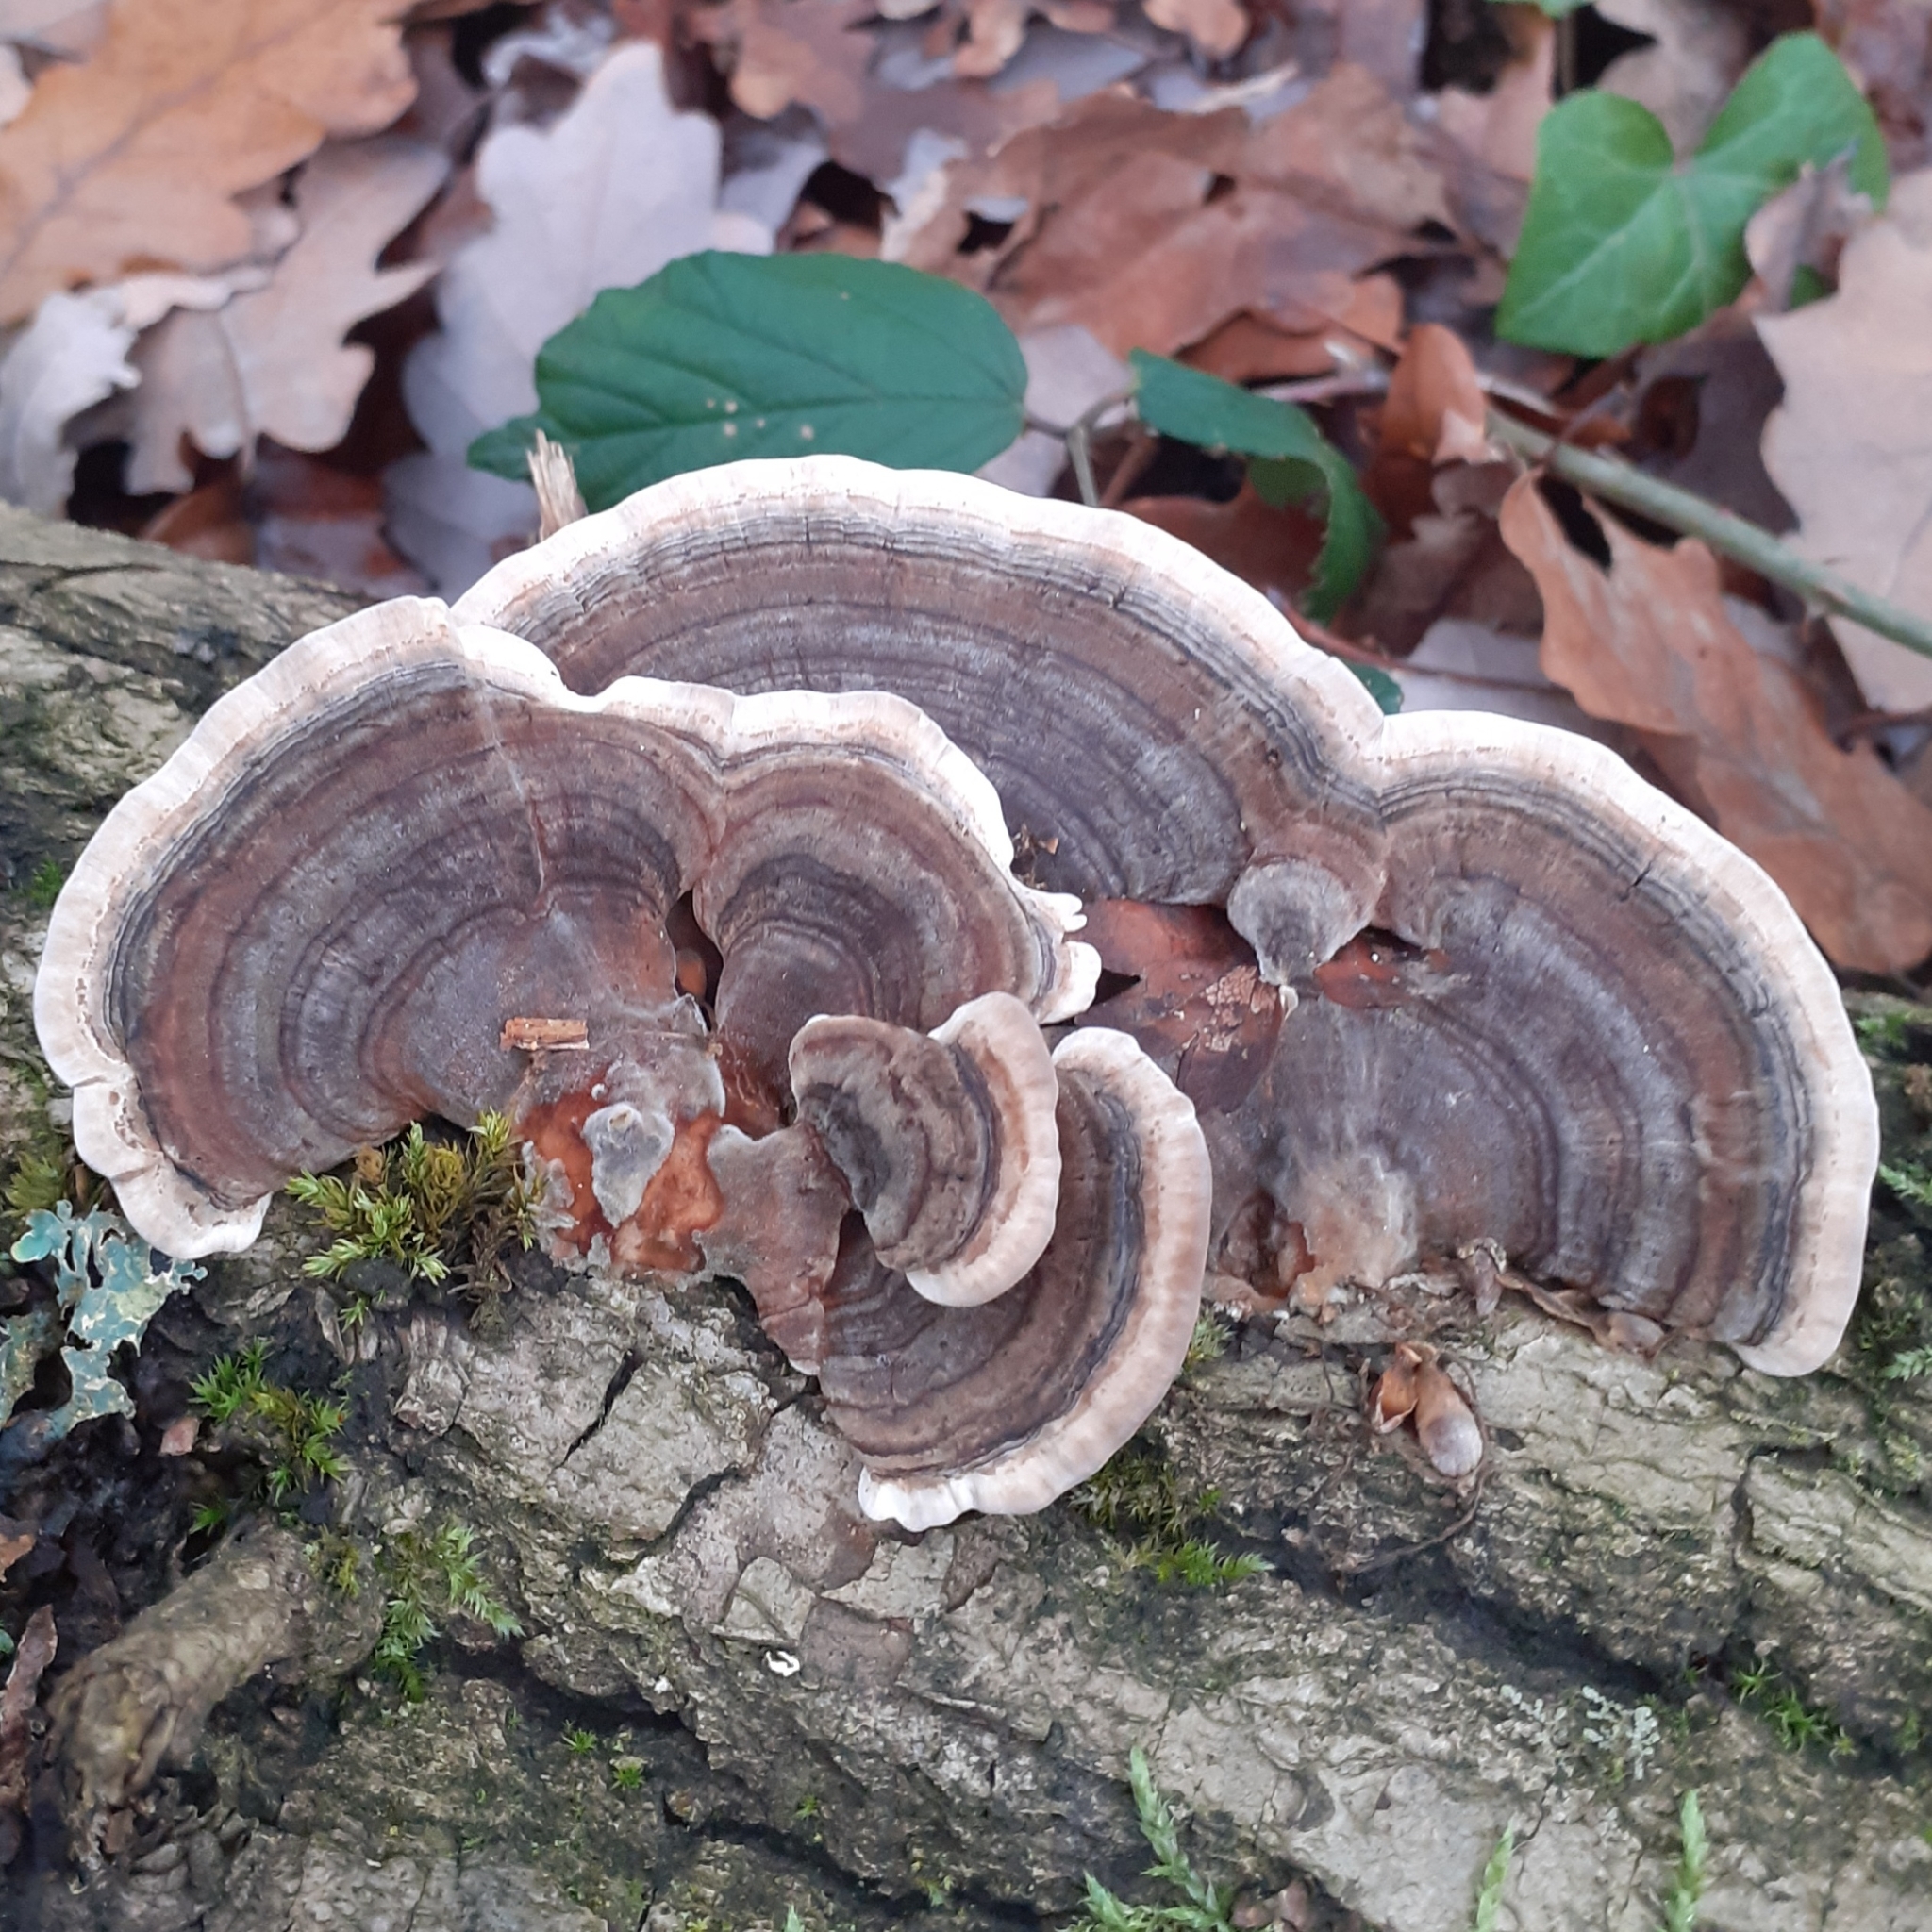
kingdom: Fungi
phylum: Basidiomycota
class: Agaricomycetes
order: Polyporales
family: Polyporaceae
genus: Trametes
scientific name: Trametes versicolor
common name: Turkeytail
